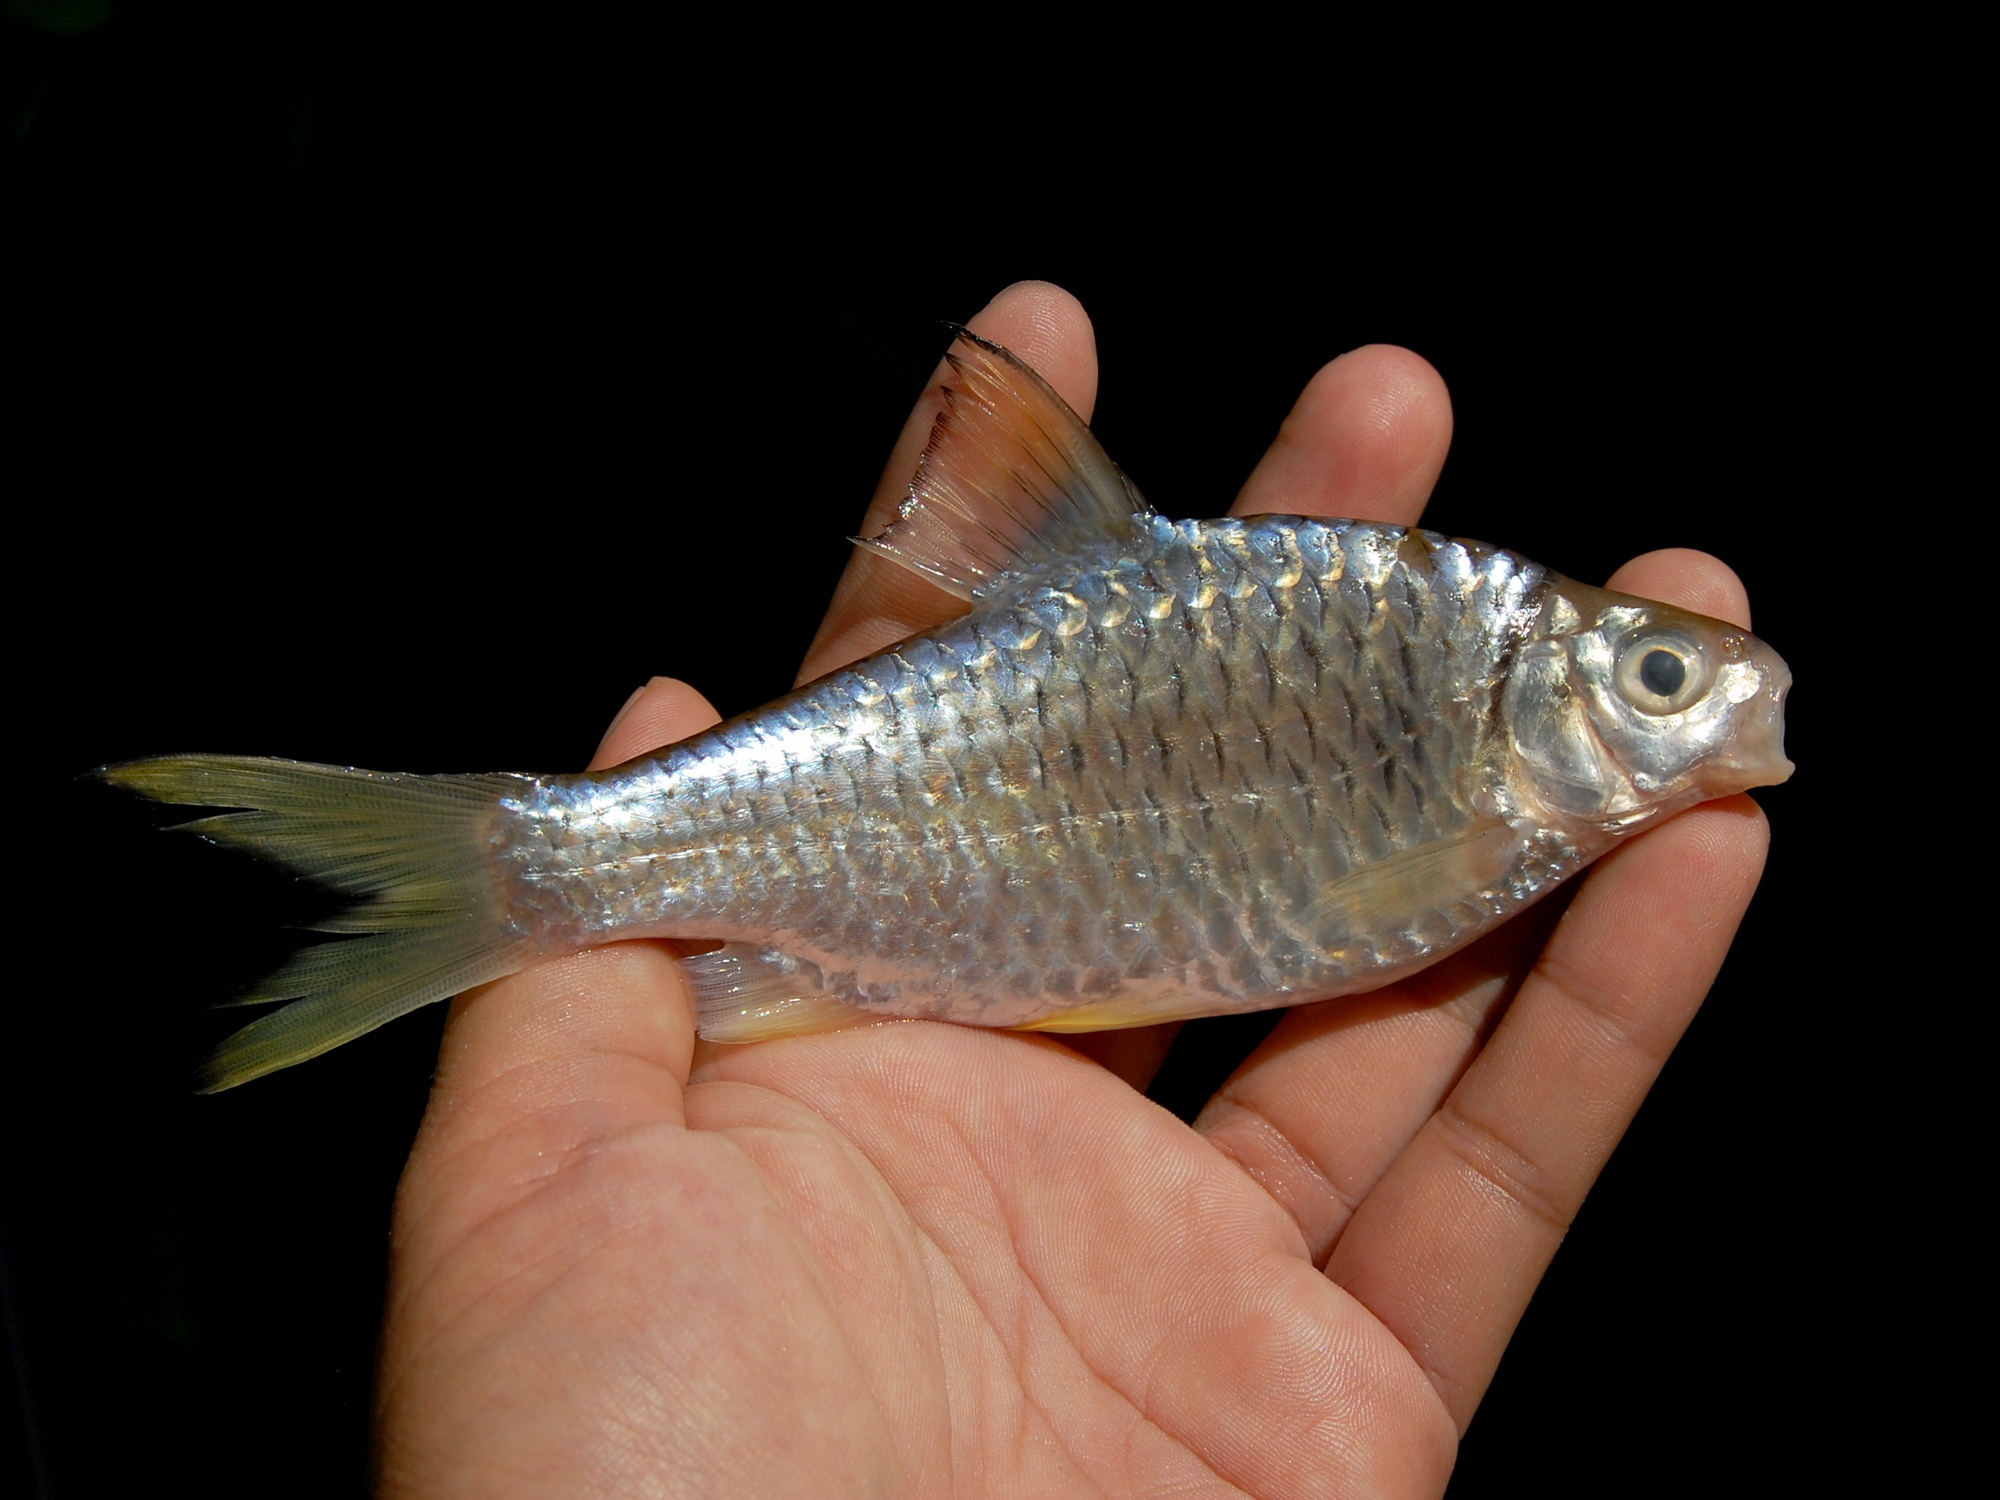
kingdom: Animalia
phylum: Chordata
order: Cypriniformes
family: Cyprinidae
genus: Mystacoleucus
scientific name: Mystacoleucus obtusirostris
